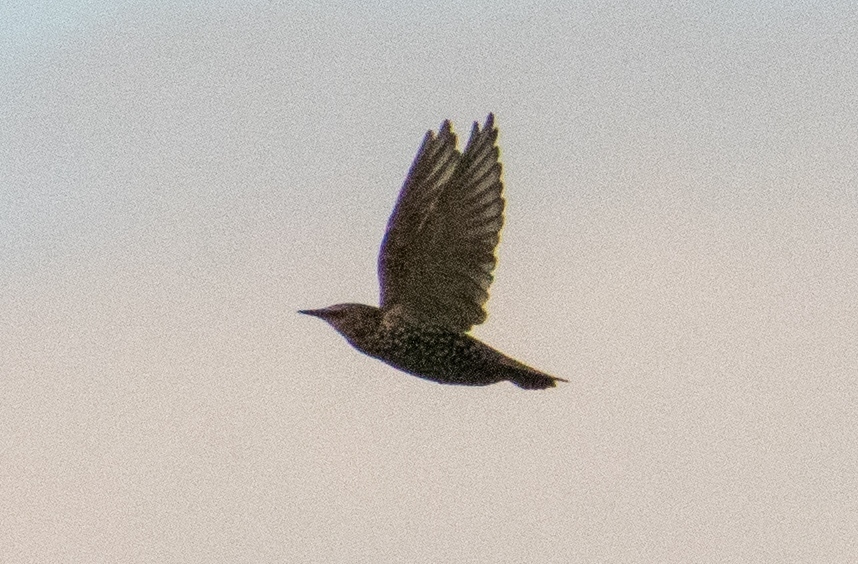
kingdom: Animalia
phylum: Chordata
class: Aves
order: Passeriformes
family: Sturnidae
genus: Sturnus
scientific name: Sturnus vulgaris
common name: Common starling
